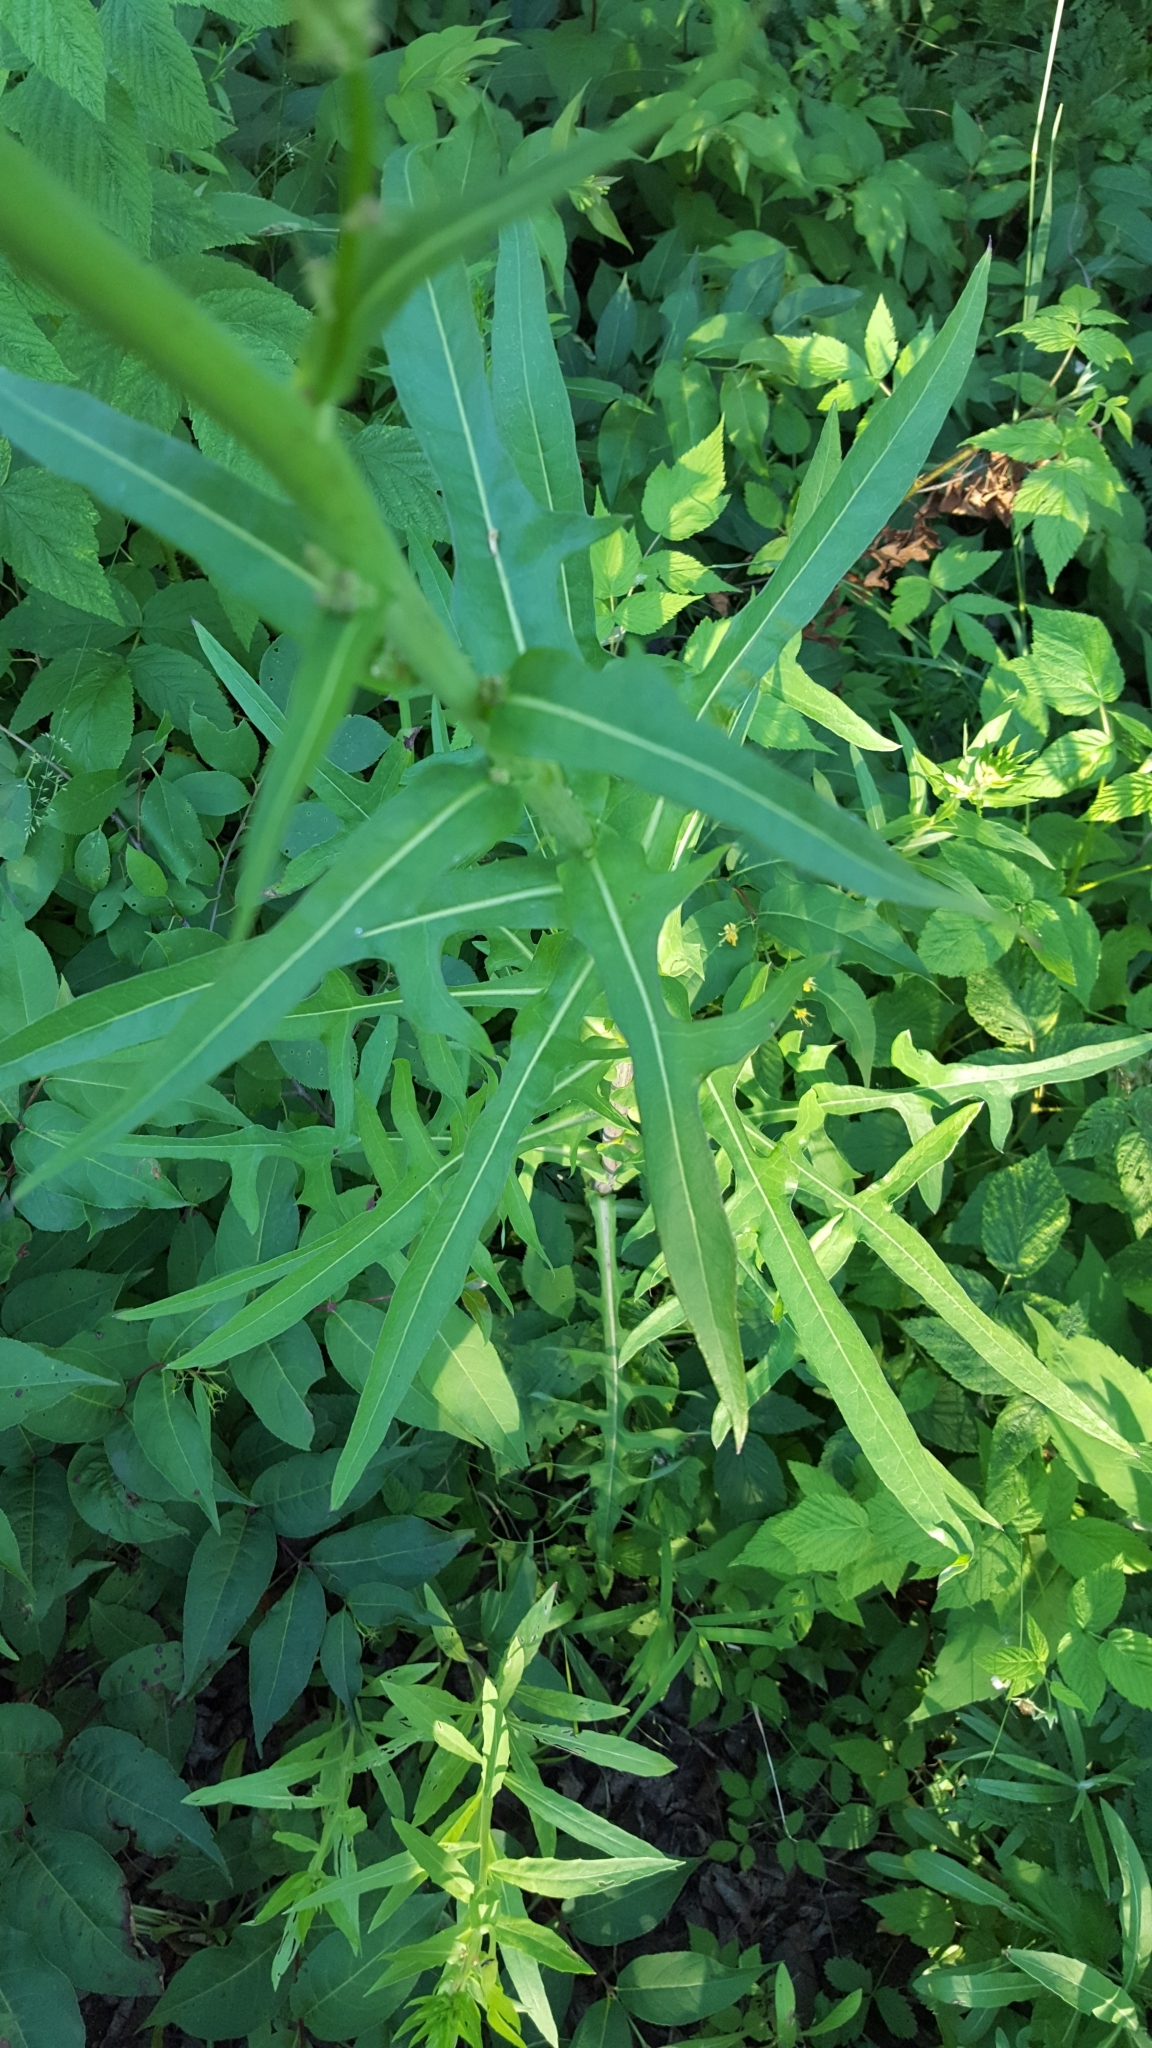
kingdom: Plantae
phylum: Tracheophyta
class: Magnoliopsida
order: Asterales
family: Asteraceae
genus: Lactuca
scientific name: Lactuca canadensis
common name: Canada lettuce
